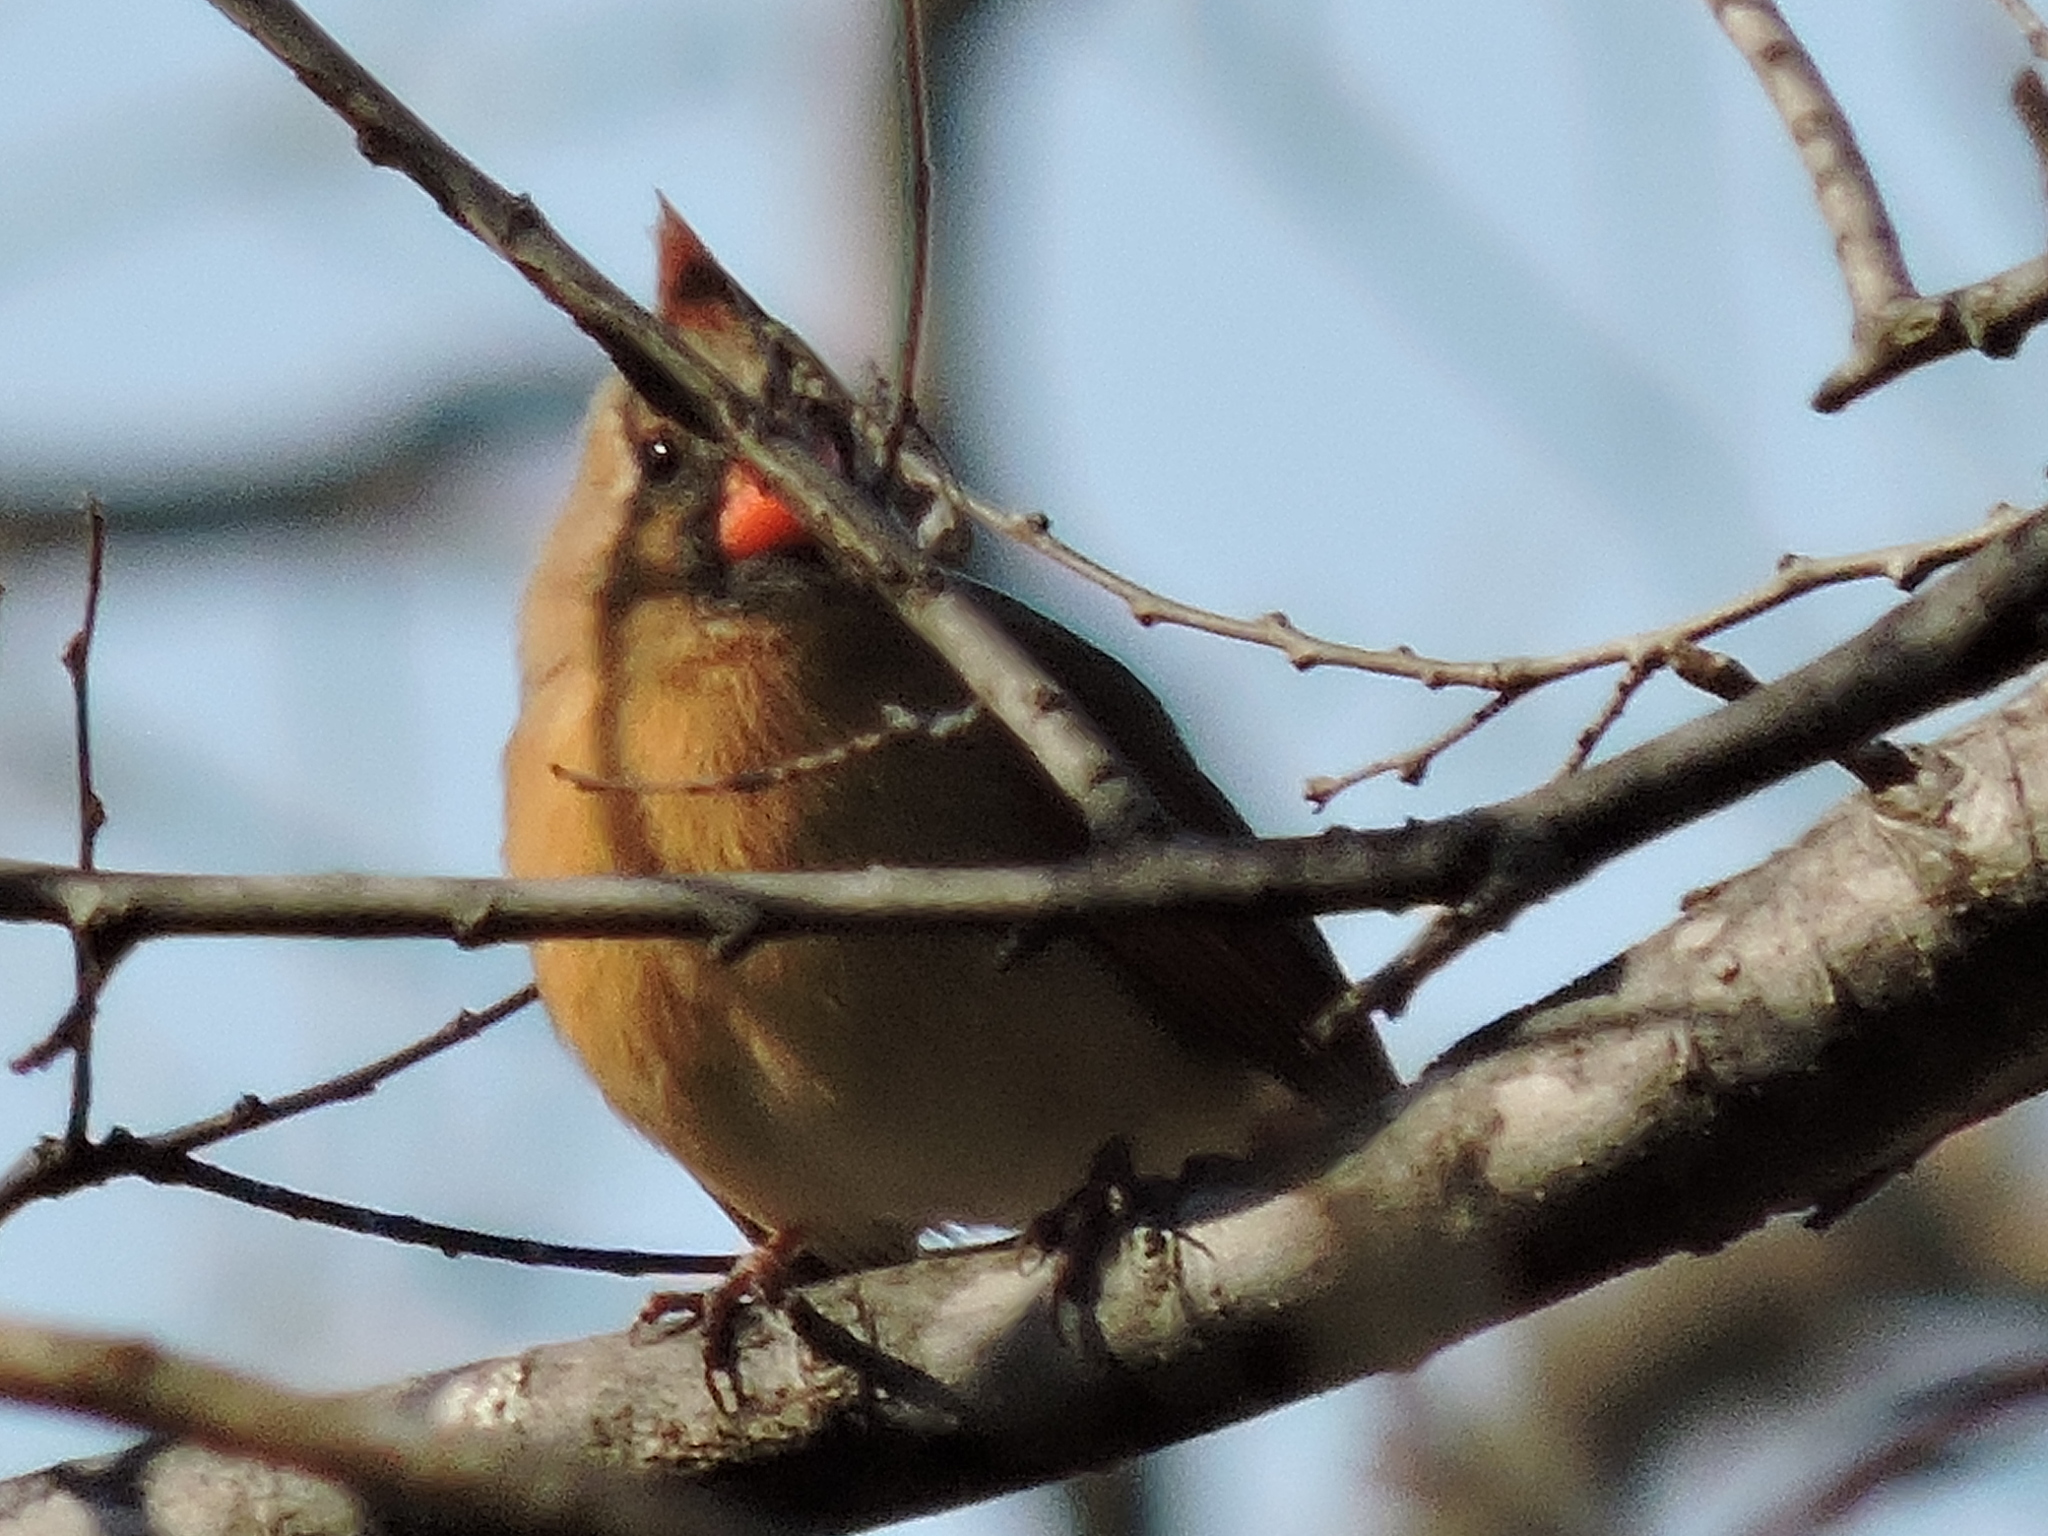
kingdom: Animalia
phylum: Chordata
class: Aves
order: Passeriformes
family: Cardinalidae
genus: Cardinalis
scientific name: Cardinalis cardinalis
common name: Northern cardinal
